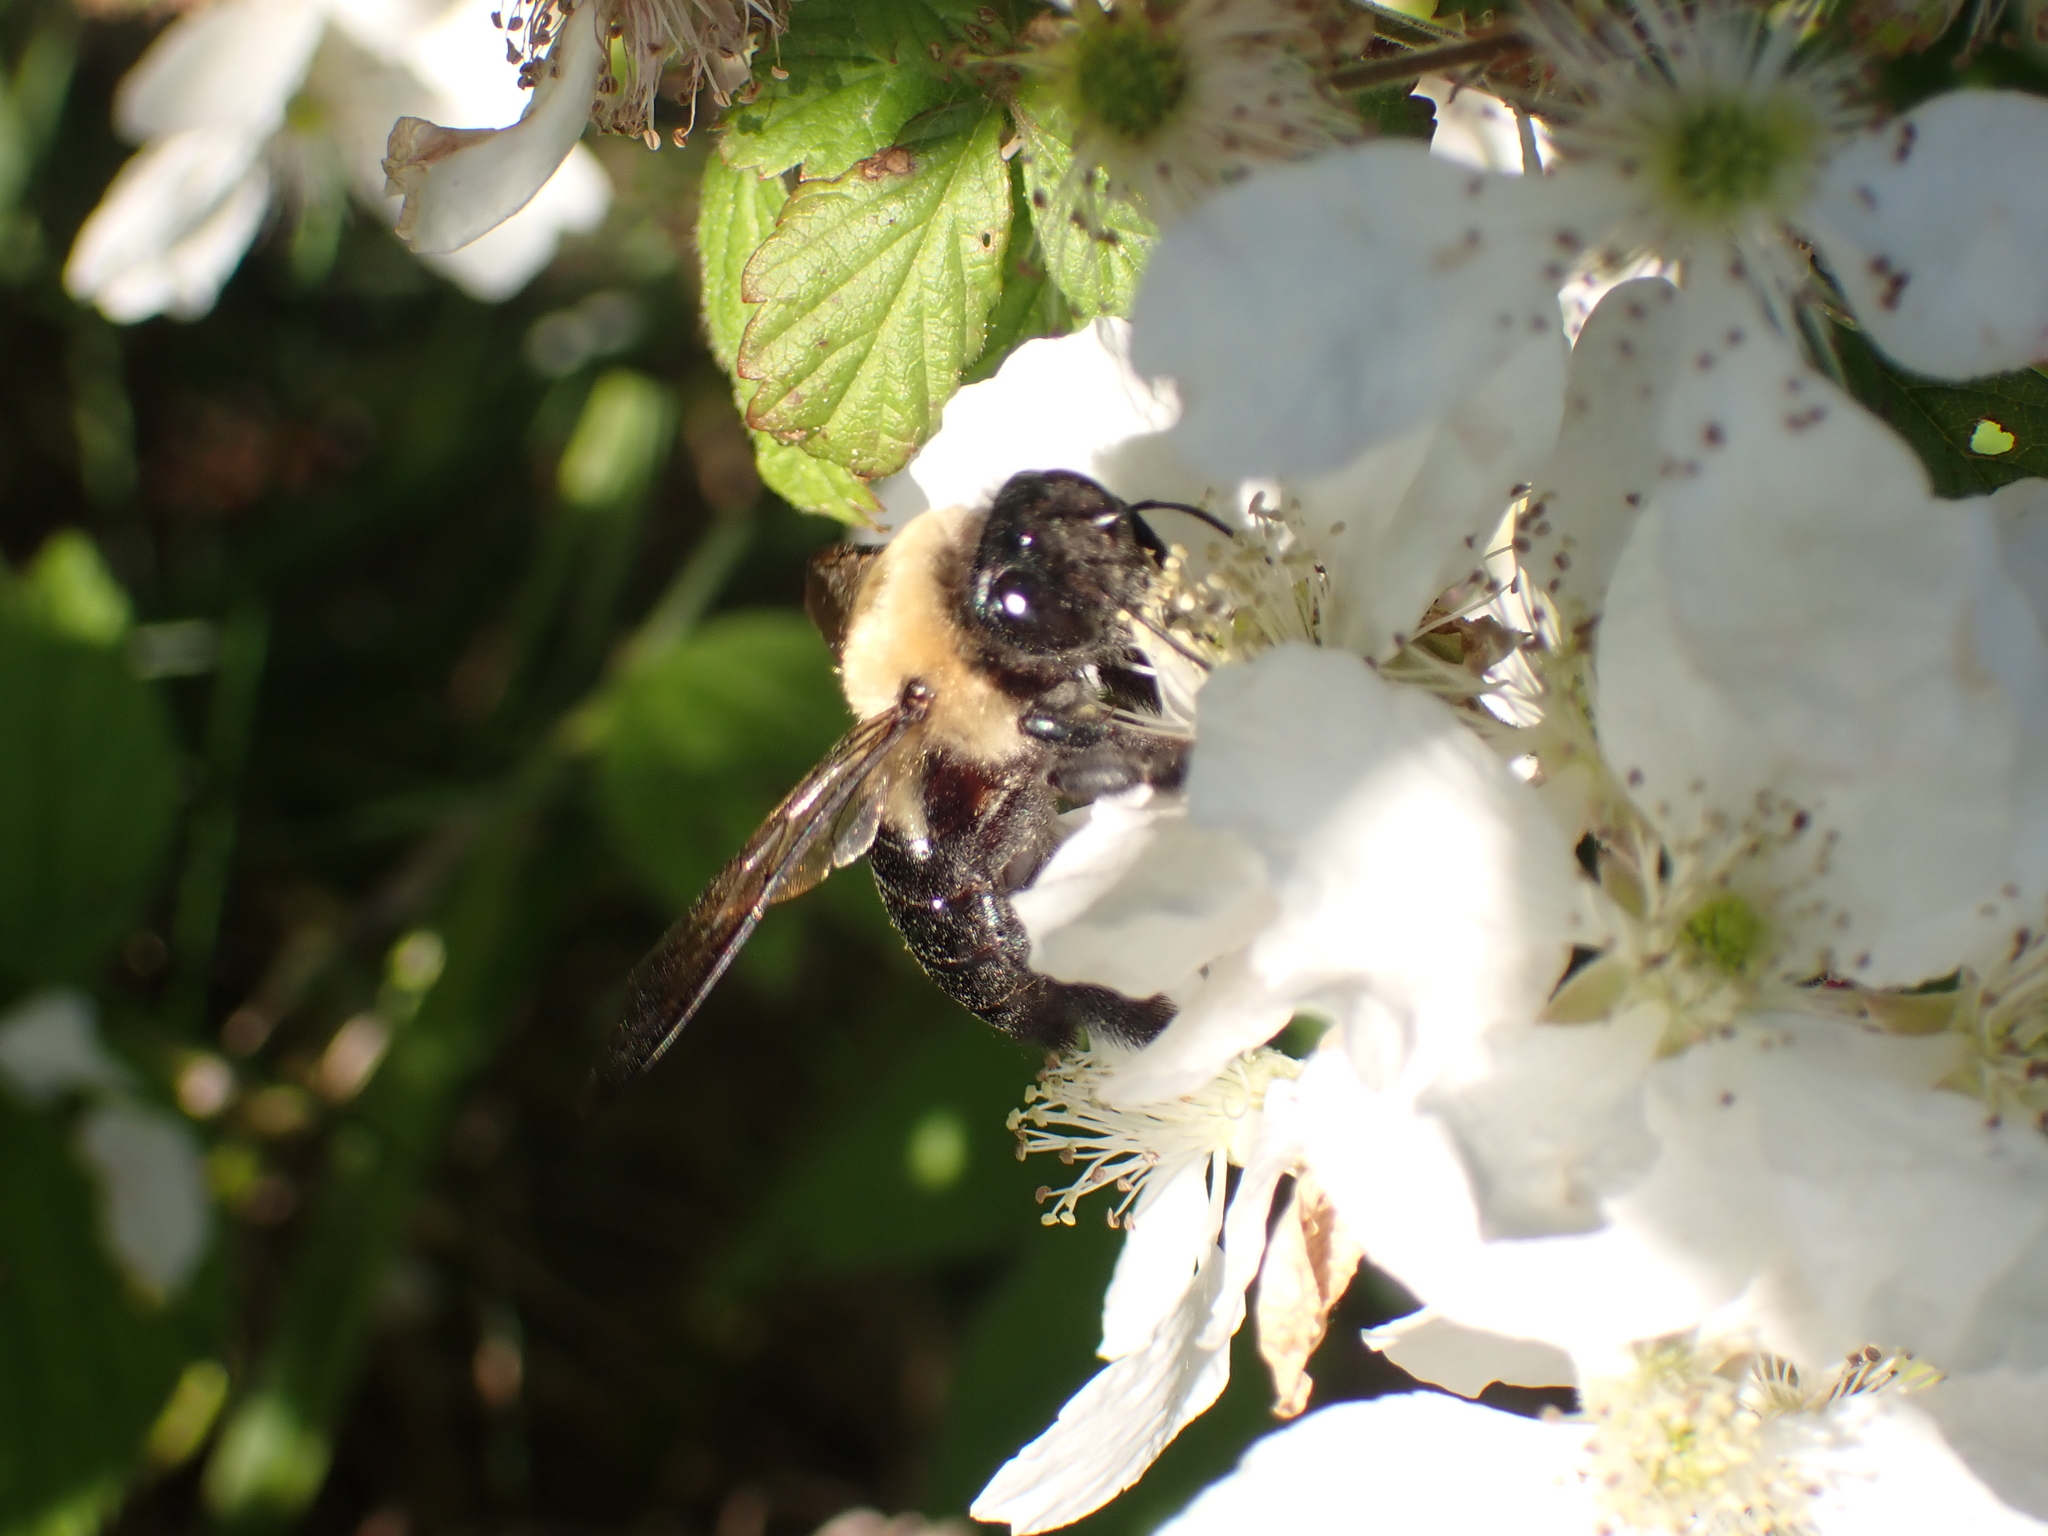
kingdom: Animalia
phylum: Arthropoda
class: Insecta
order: Hymenoptera
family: Apidae
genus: Xylocopa
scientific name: Xylocopa virginica
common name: Carpenter bee
